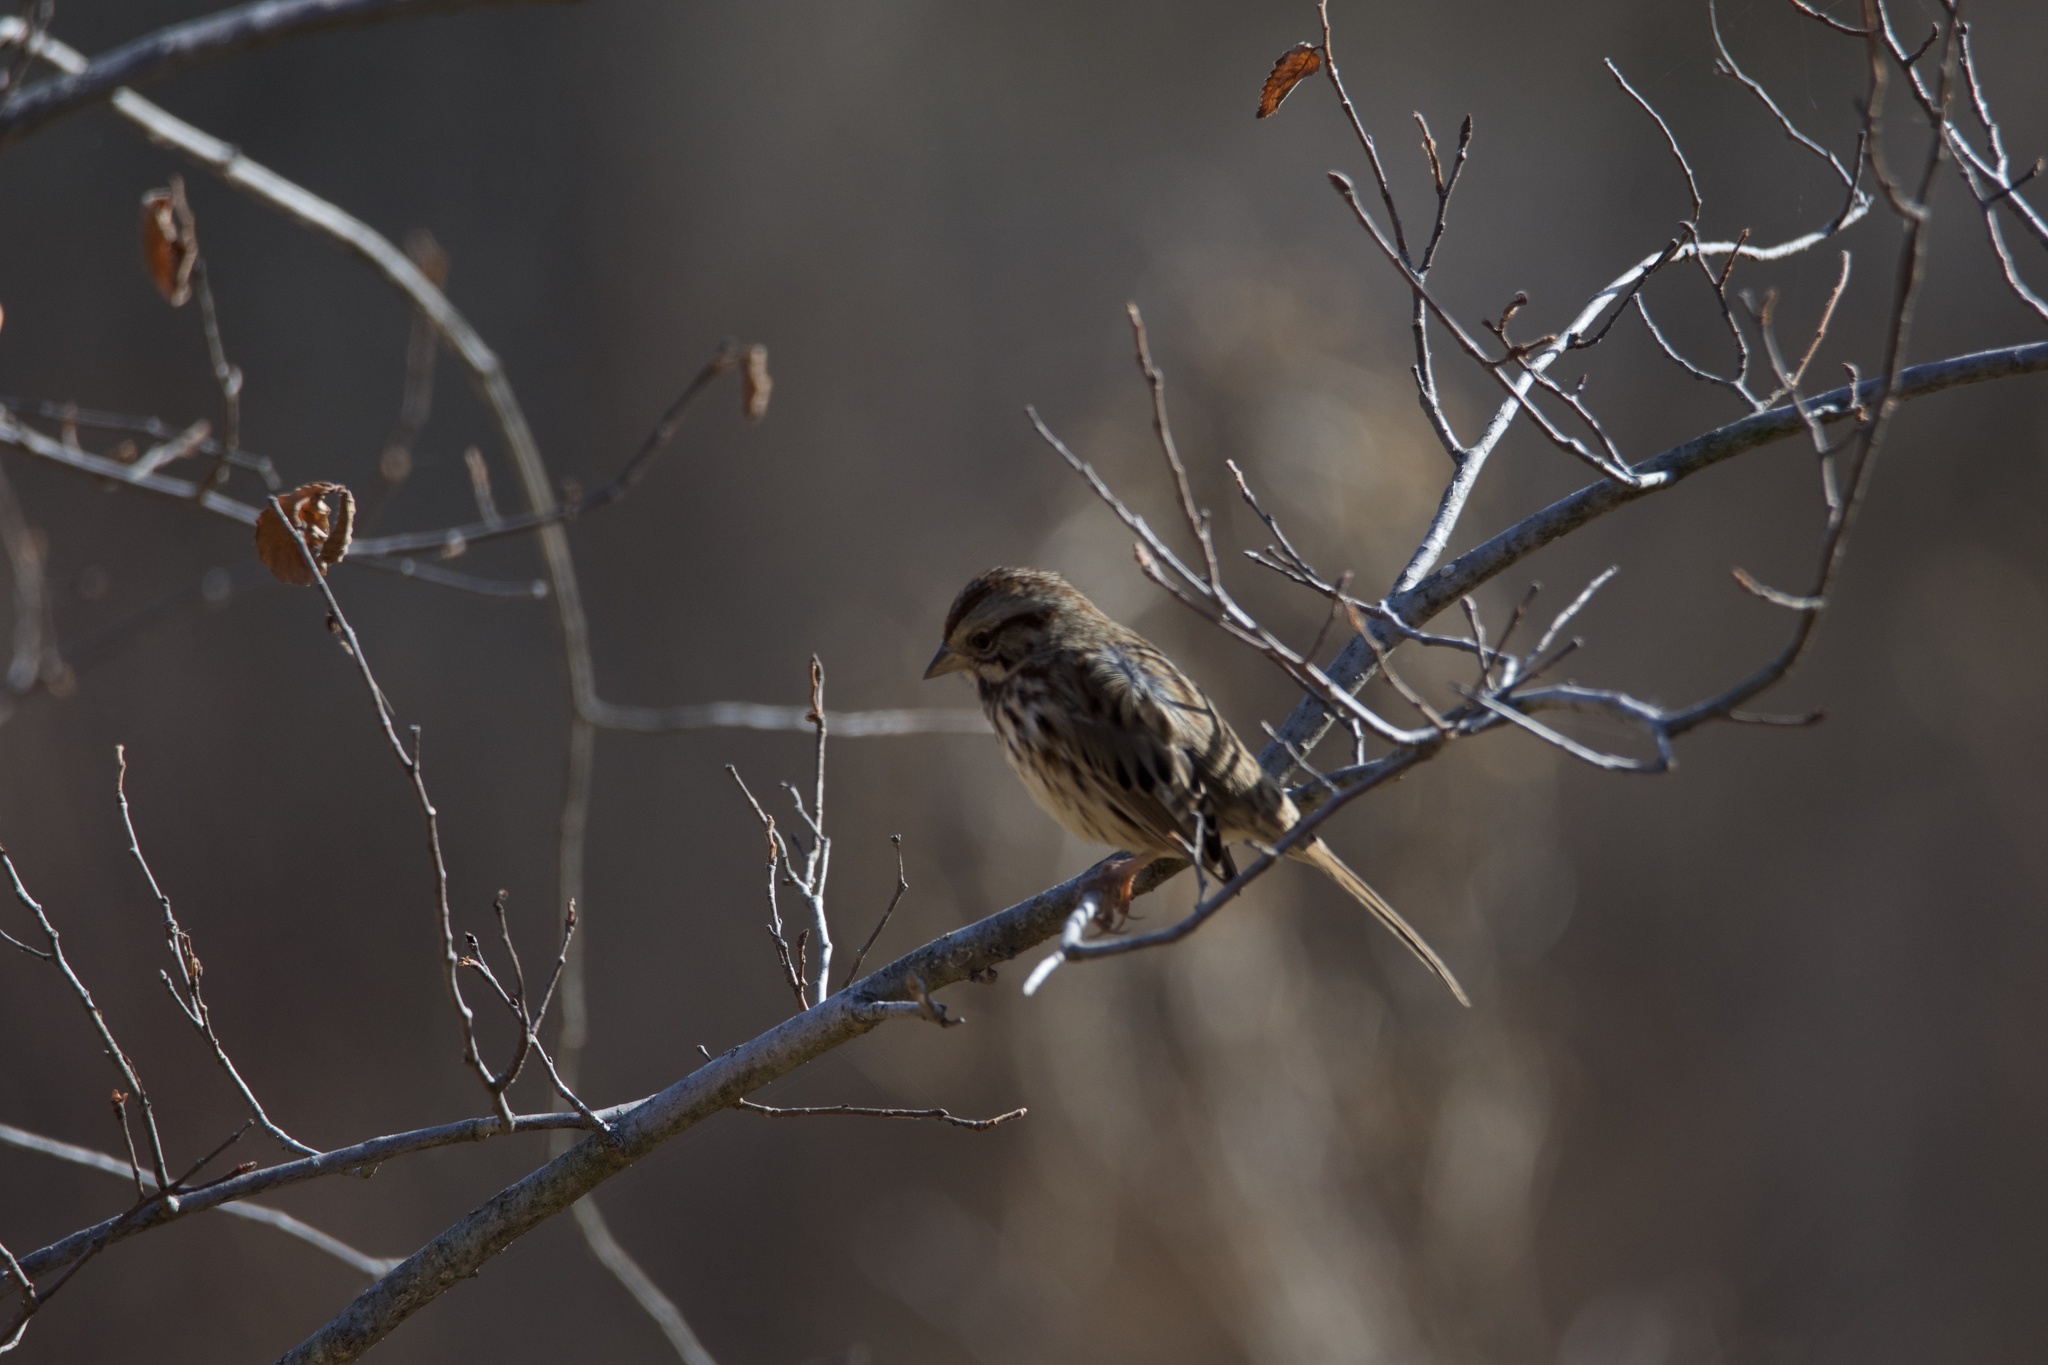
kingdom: Animalia
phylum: Chordata
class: Aves
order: Passeriformes
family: Passerellidae
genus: Melospiza
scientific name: Melospiza melodia
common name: Song sparrow
